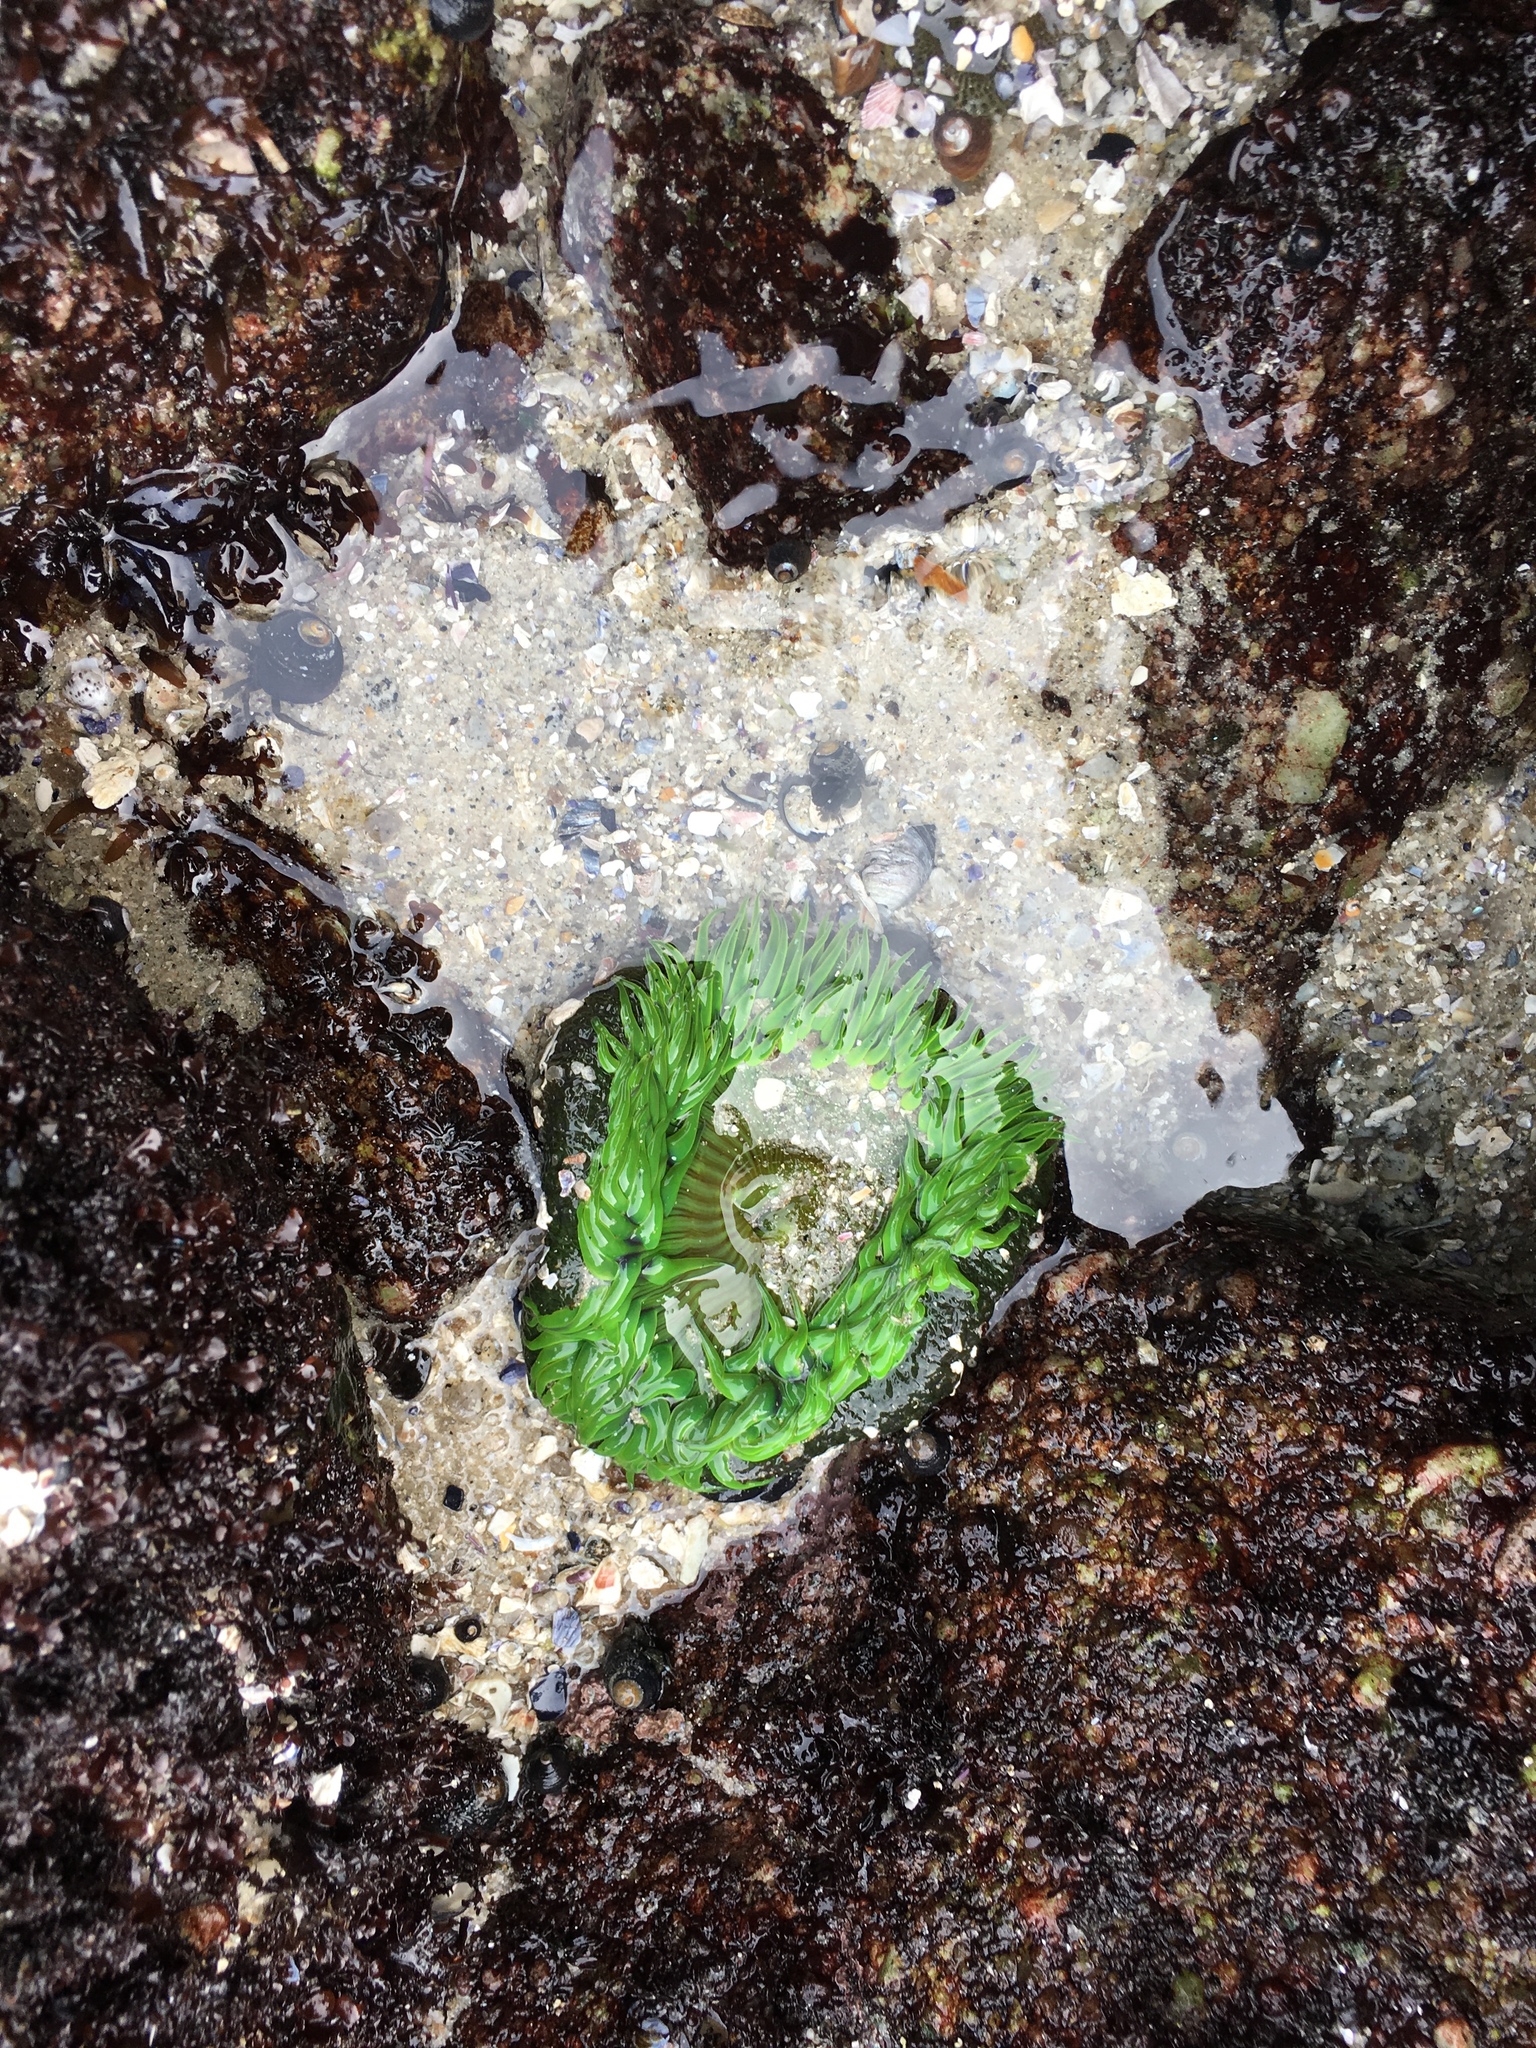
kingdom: Animalia
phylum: Cnidaria
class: Anthozoa
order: Actiniaria
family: Actiniidae
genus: Anthopleura
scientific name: Anthopleura sola
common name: Sun anemone
